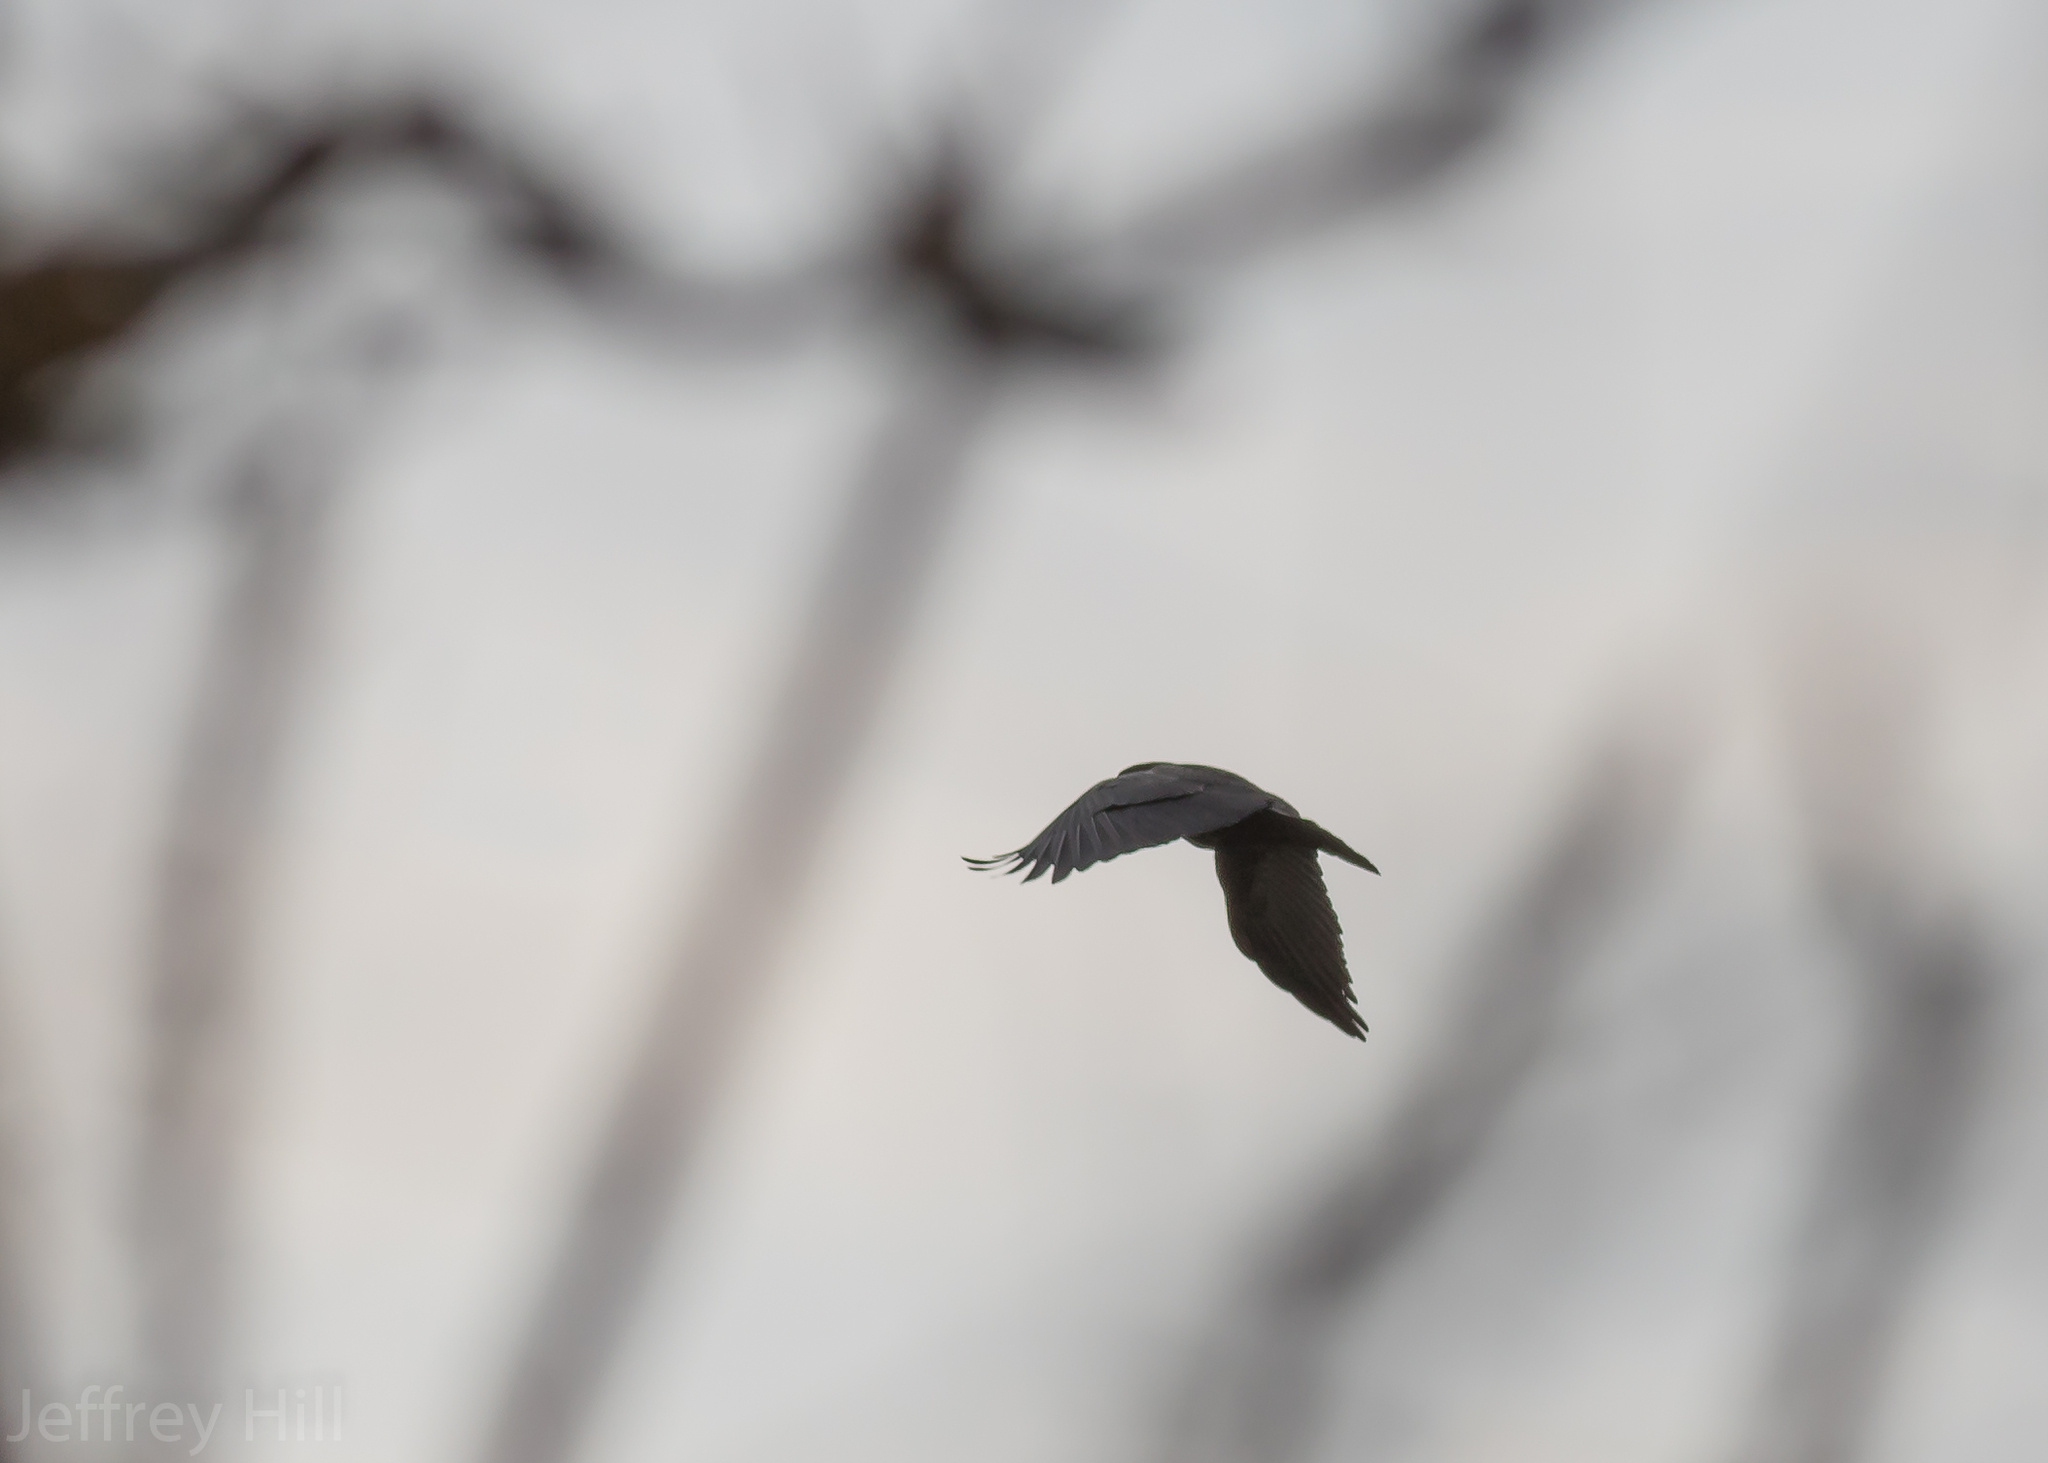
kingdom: Animalia
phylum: Chordata
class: Aves
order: Passeriformes
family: Corvidae
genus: Corvus
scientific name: Corvus brachyrhynchos
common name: American crow
